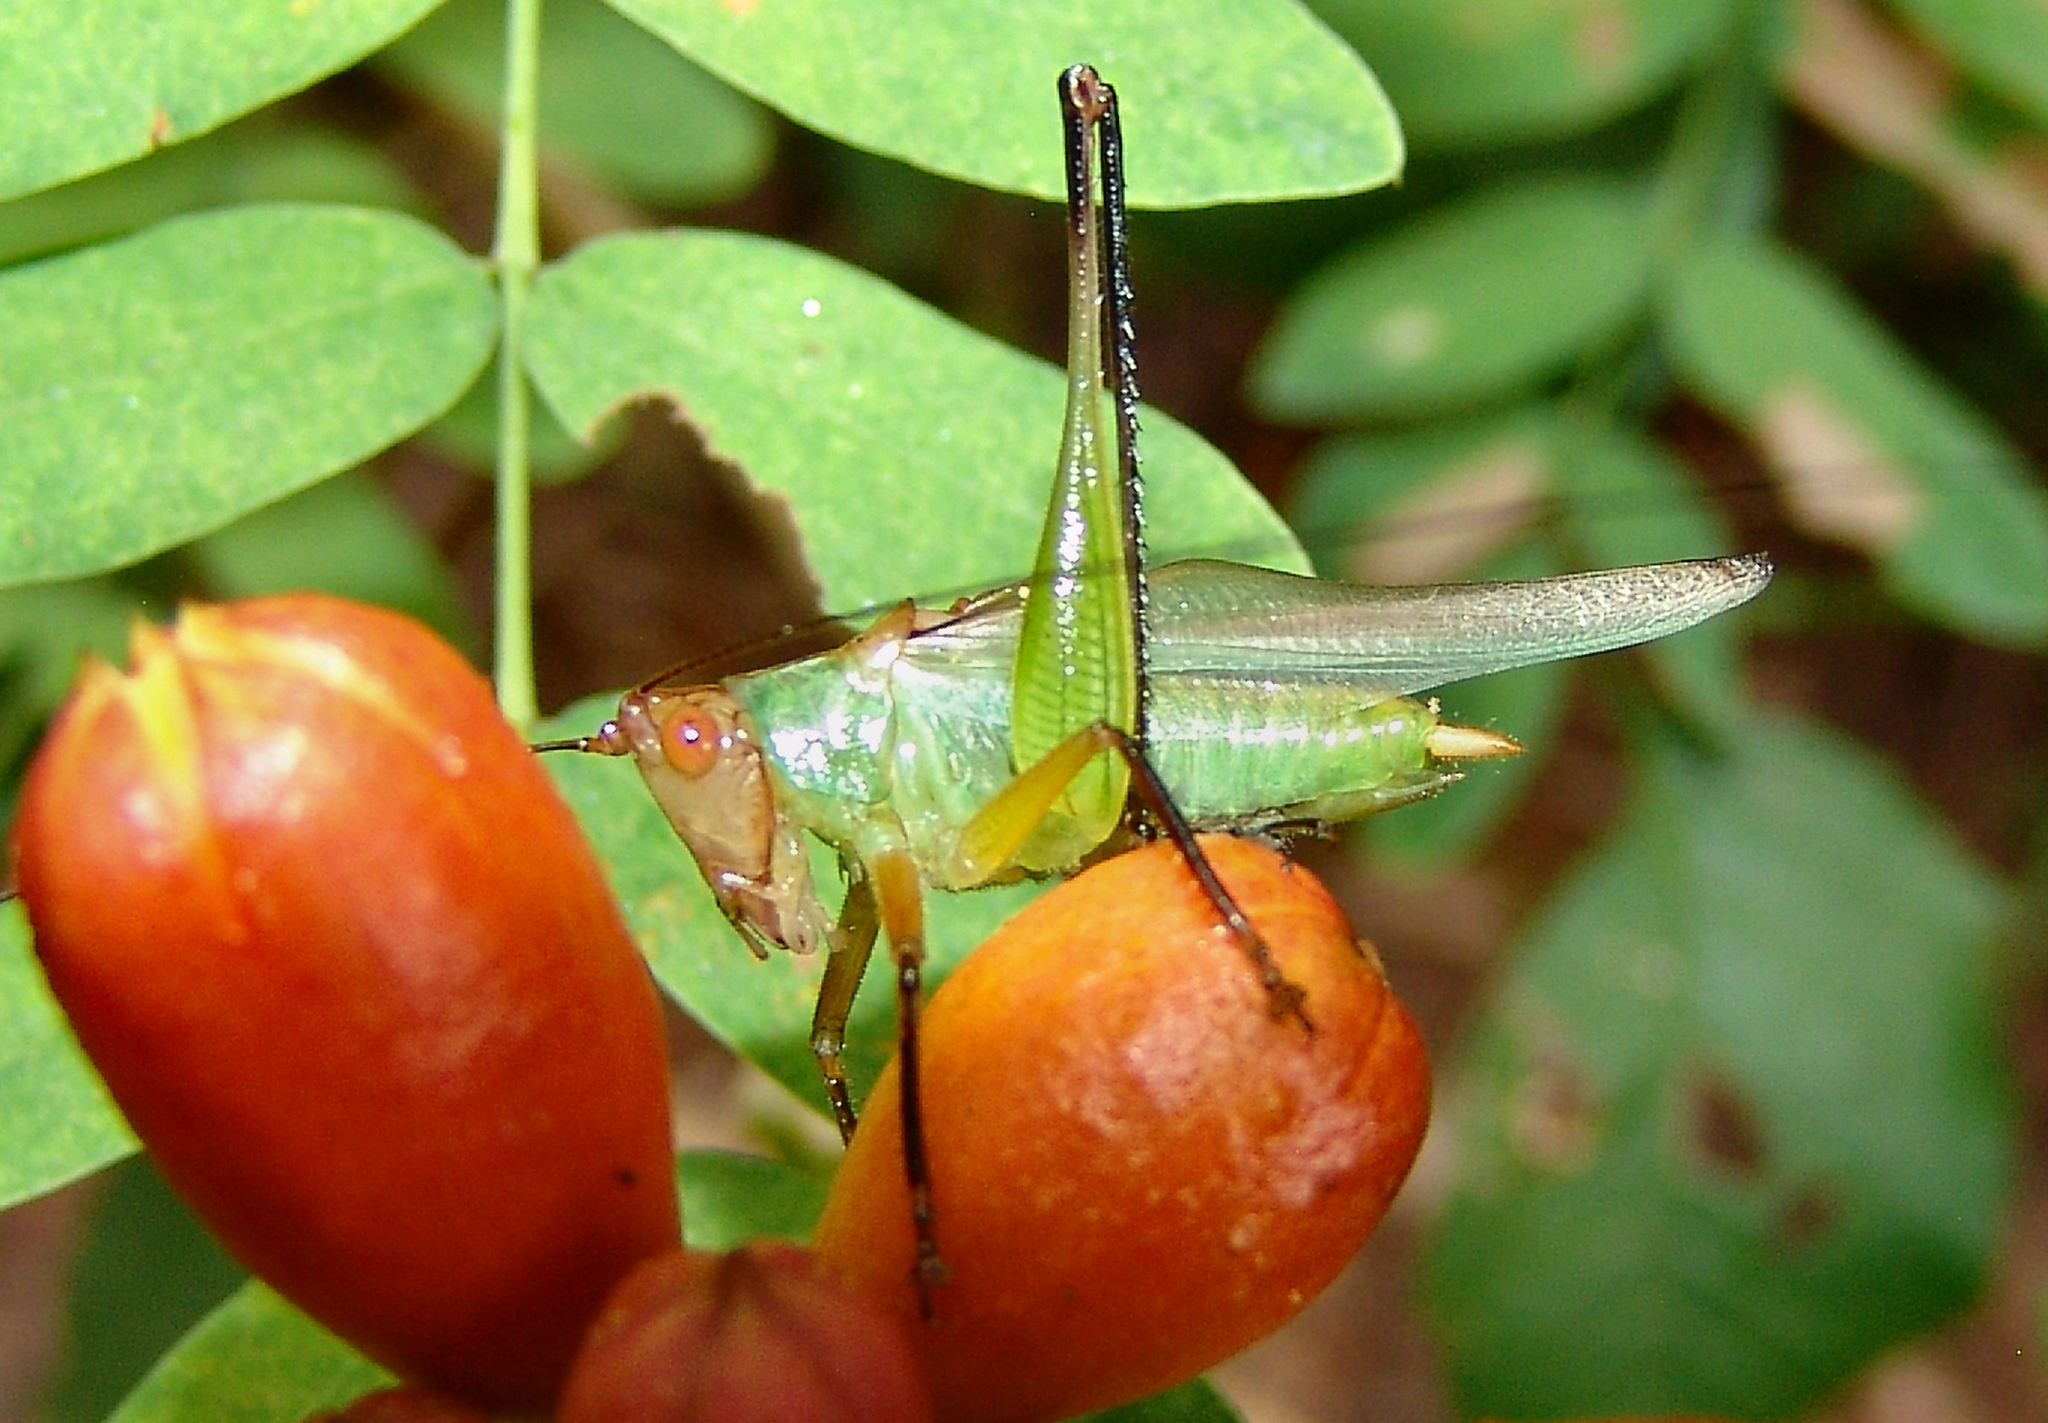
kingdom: Animalia
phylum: Arthropoda
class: Insecta
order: Orthoptera
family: Tettigoniidae
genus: Orchelimum
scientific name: Orchelimum nigripes
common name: Black-legged meadow katydid
